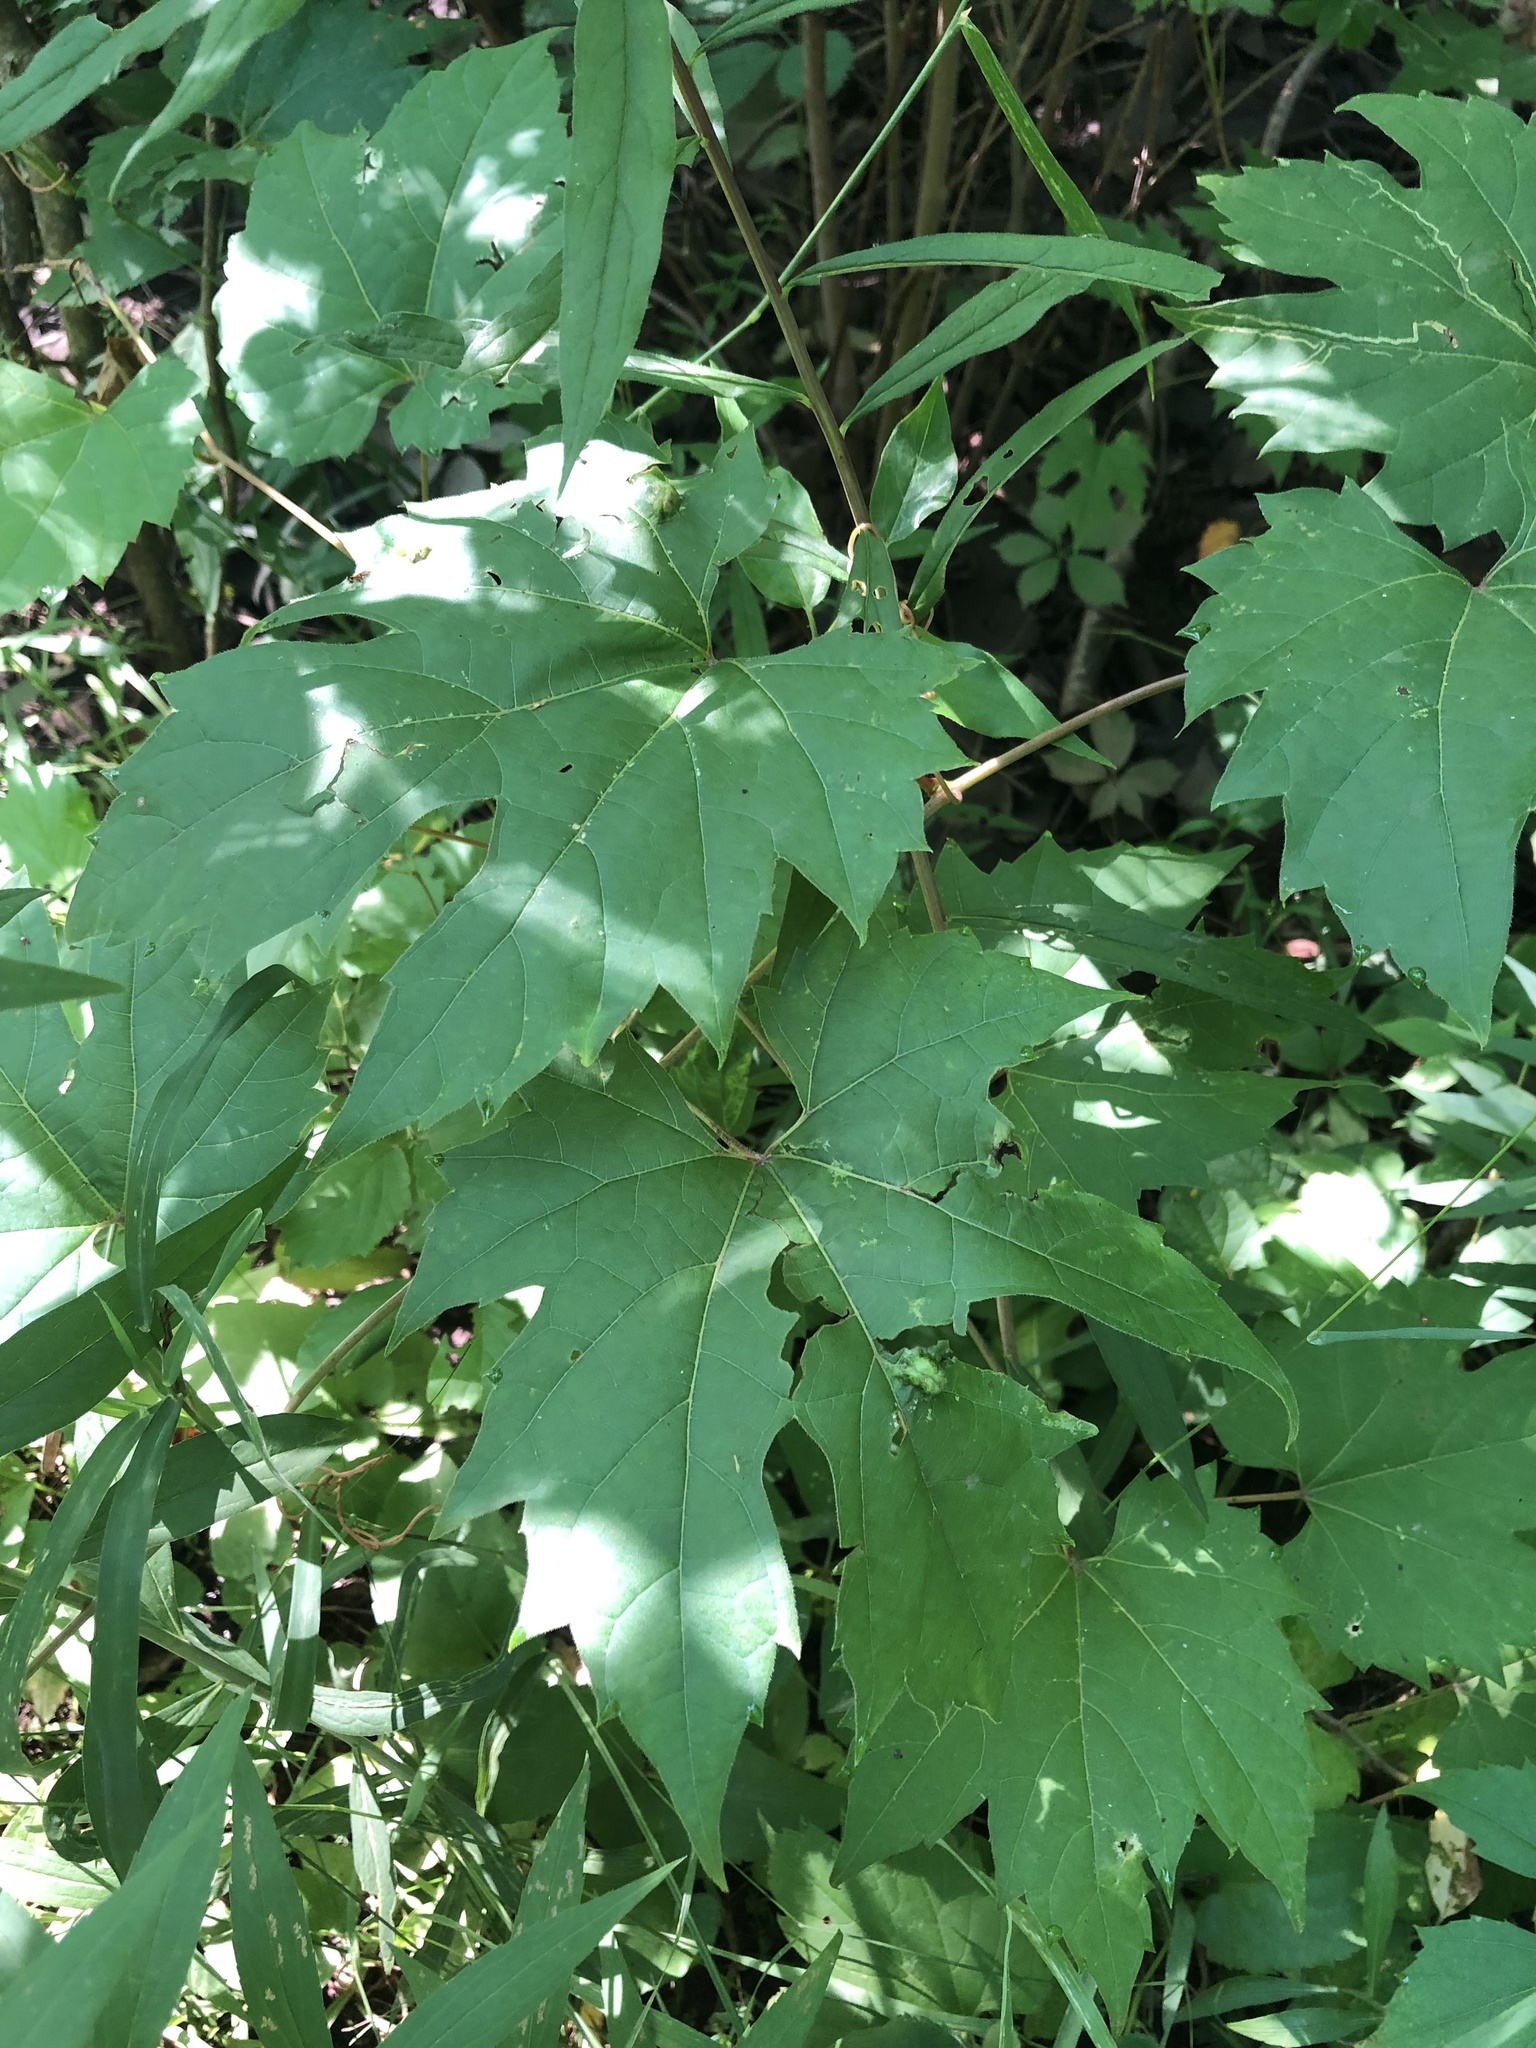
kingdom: Plantae
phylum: Tracheophyta
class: Magnoliopsida
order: Vitales
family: Vitaceae
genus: Vitis
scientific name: Vitis riparia
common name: Frost grape
